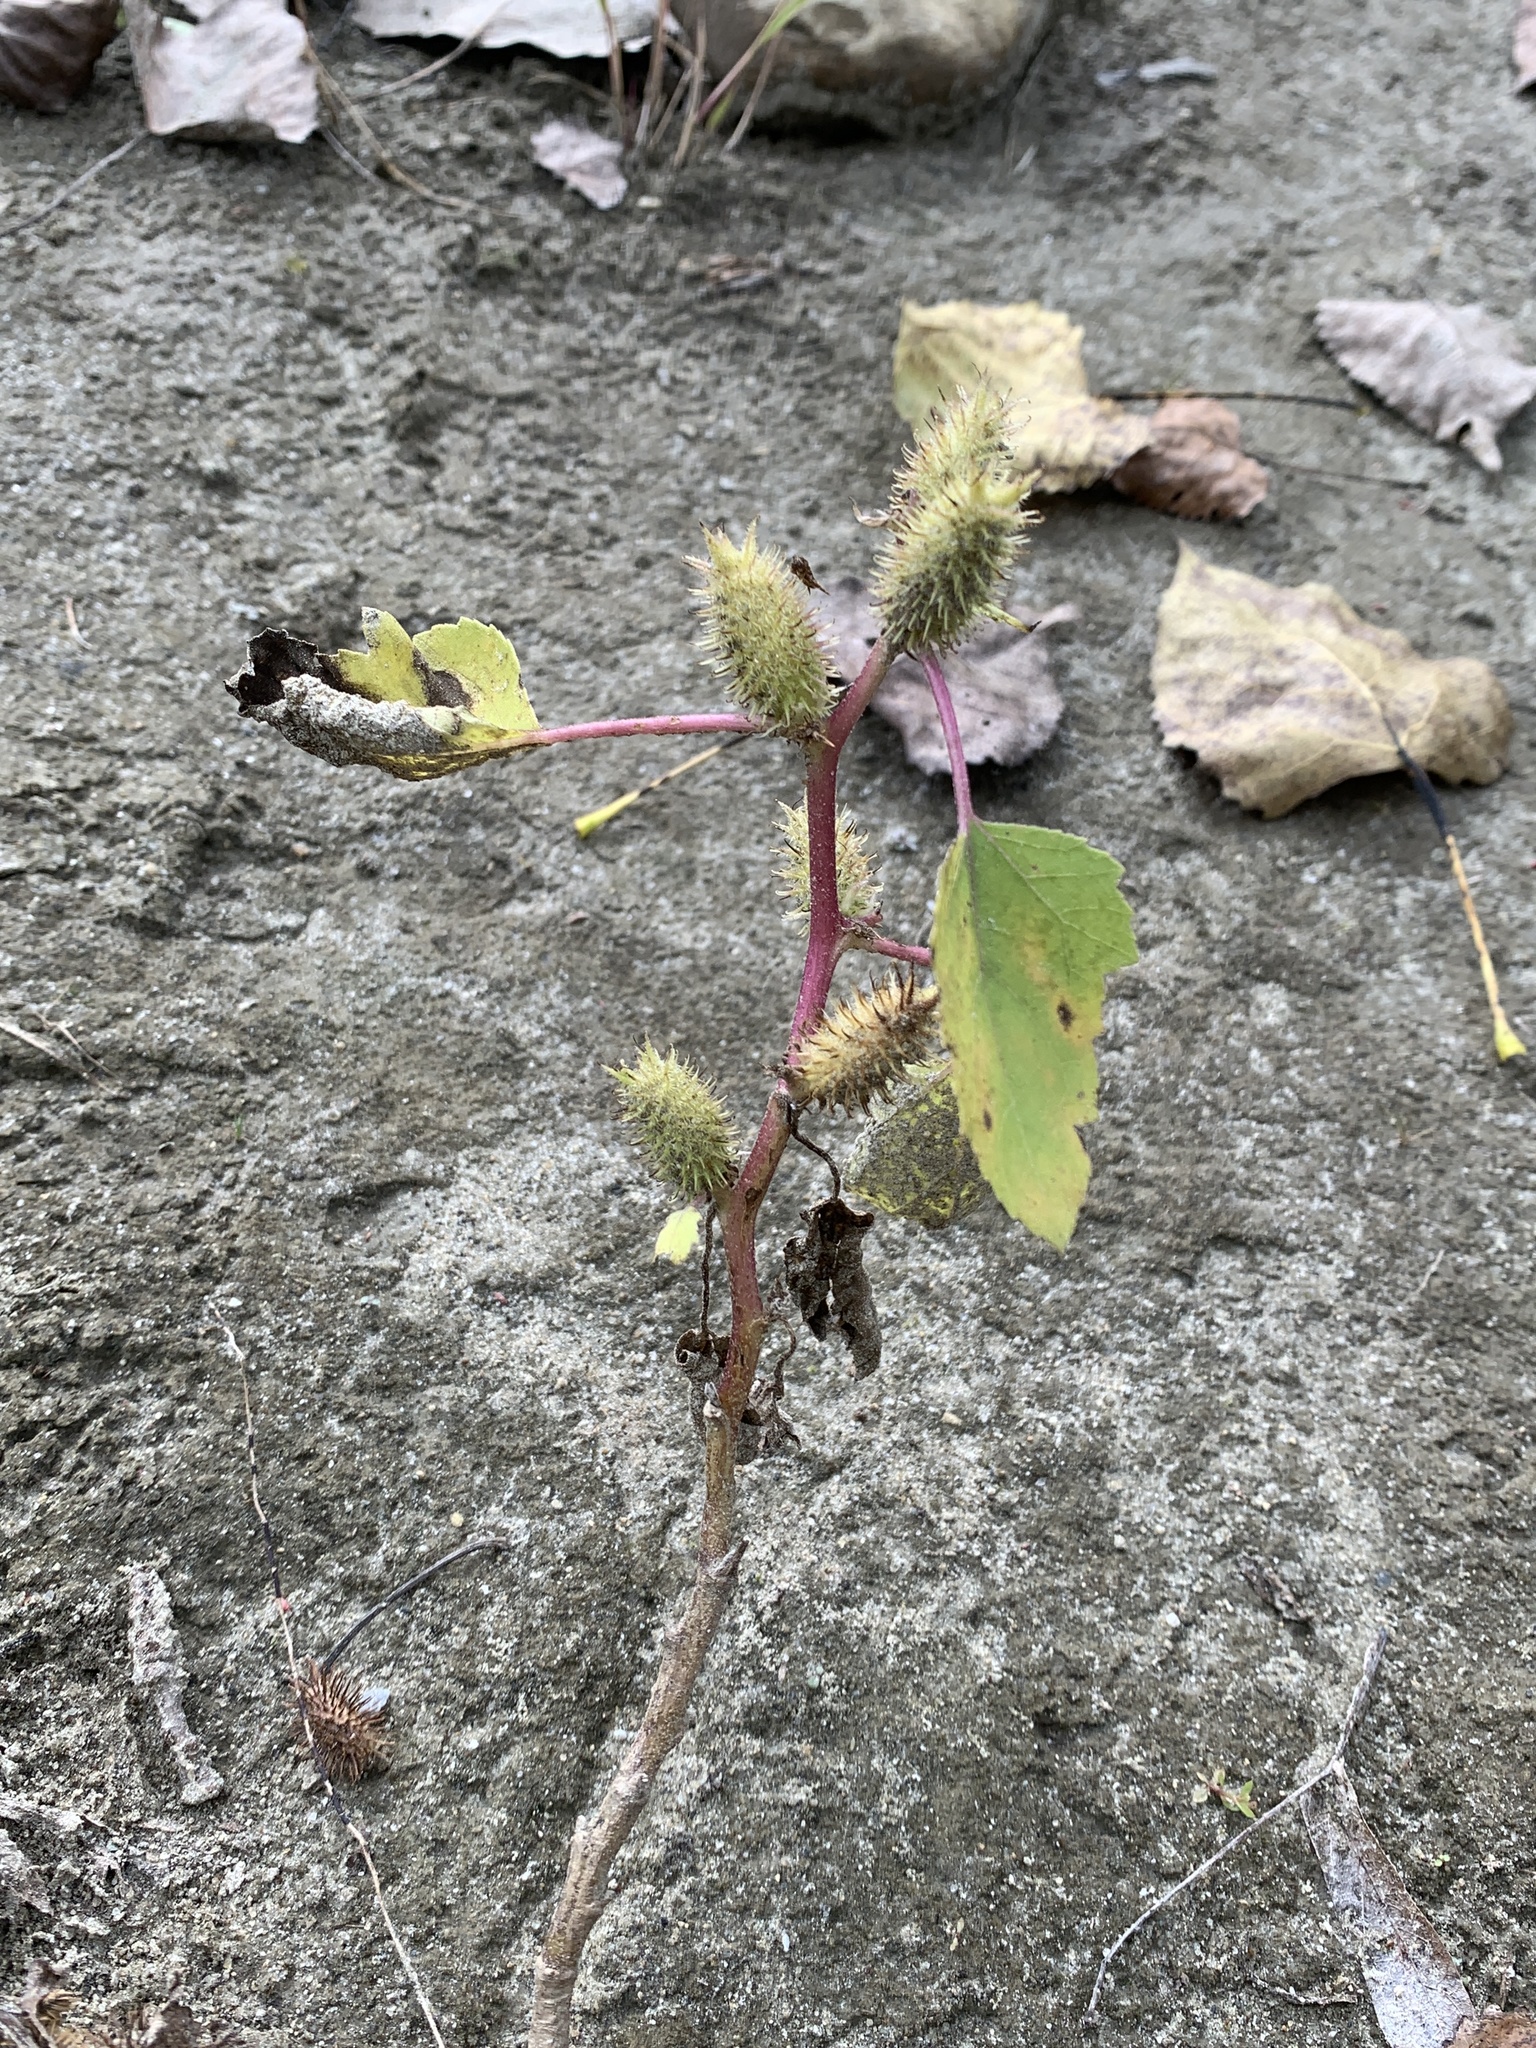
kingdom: Plantae
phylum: Tracheophyta
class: Magnoliopsida
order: Asterales
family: Asteraceae
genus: Xanthium
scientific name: Xanthium strumarium
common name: Rough cocklebur
